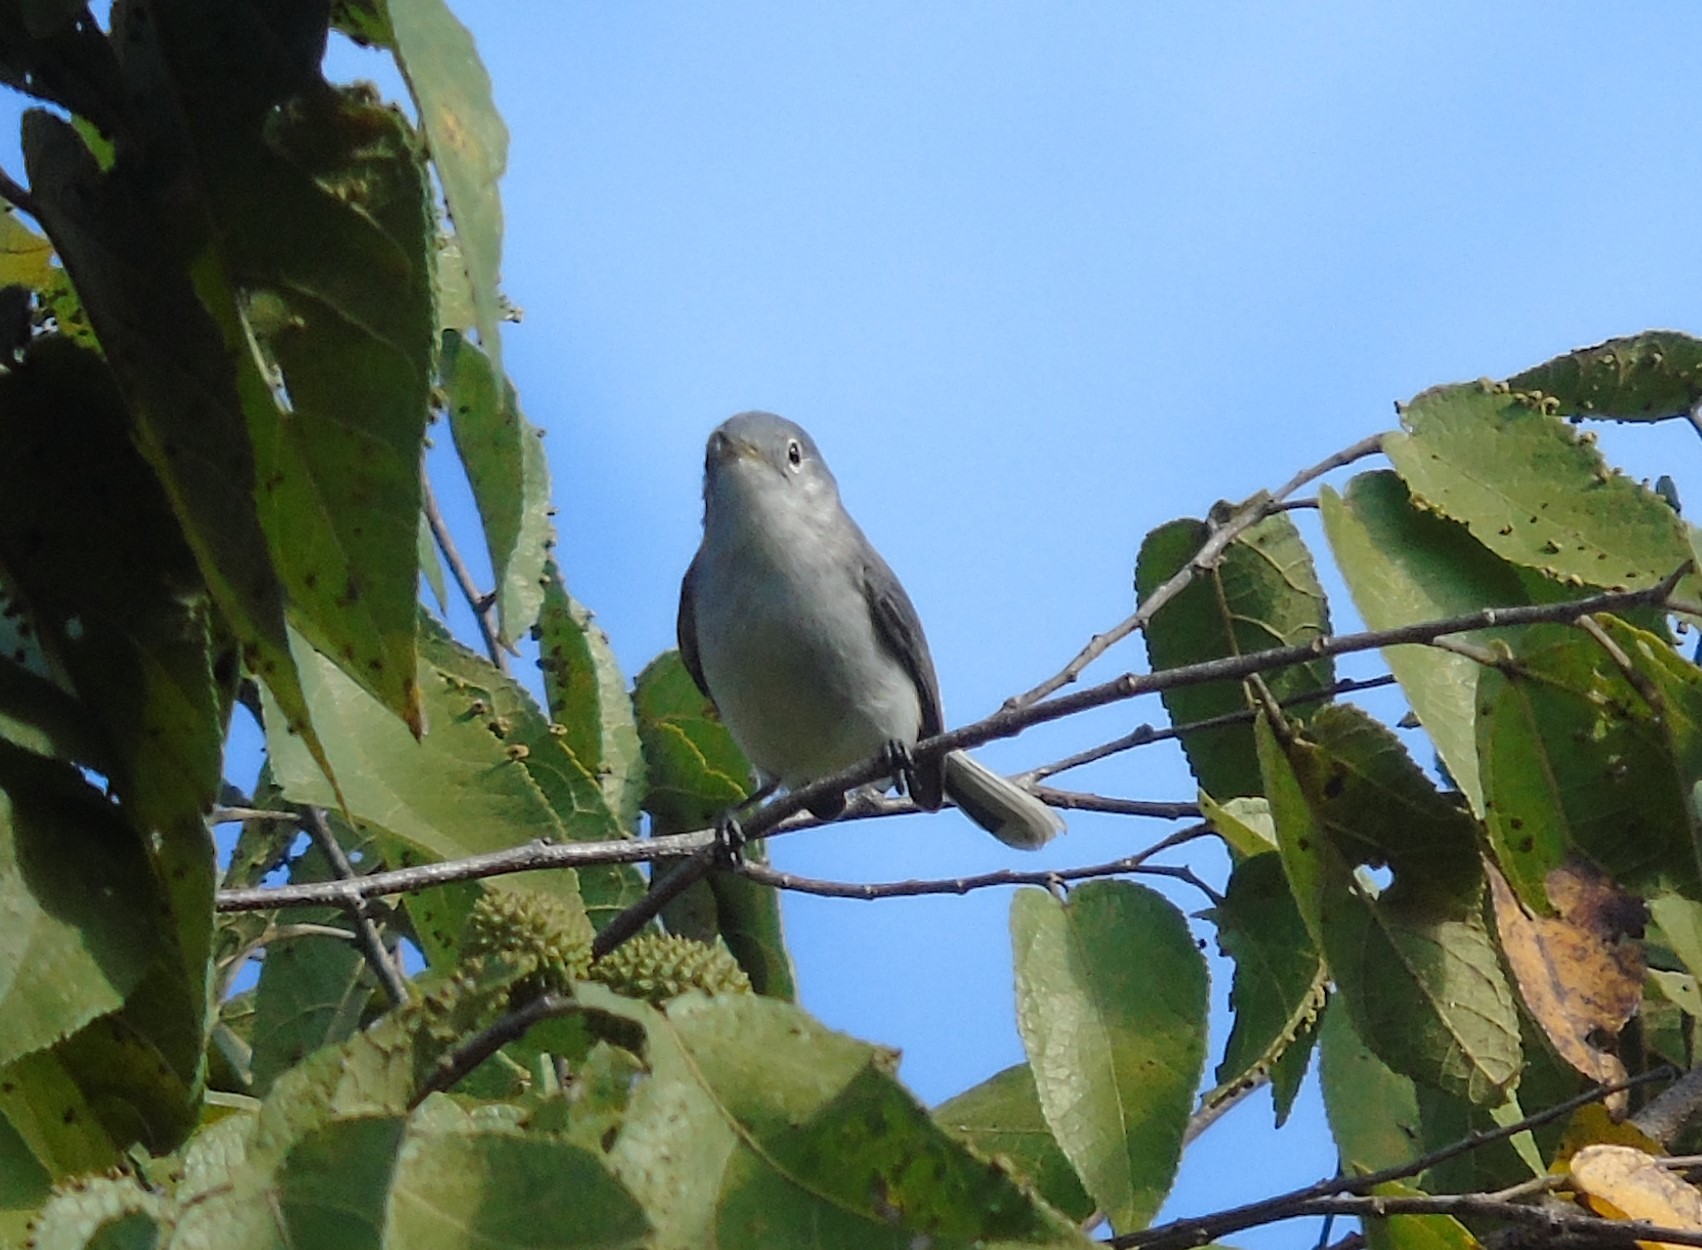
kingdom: Animalia
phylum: Chordata
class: Aves
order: Passeriformes
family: Polioptilidae
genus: Polioptila
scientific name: Polioptila caerulea
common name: Blue-gray gnatcatcher
